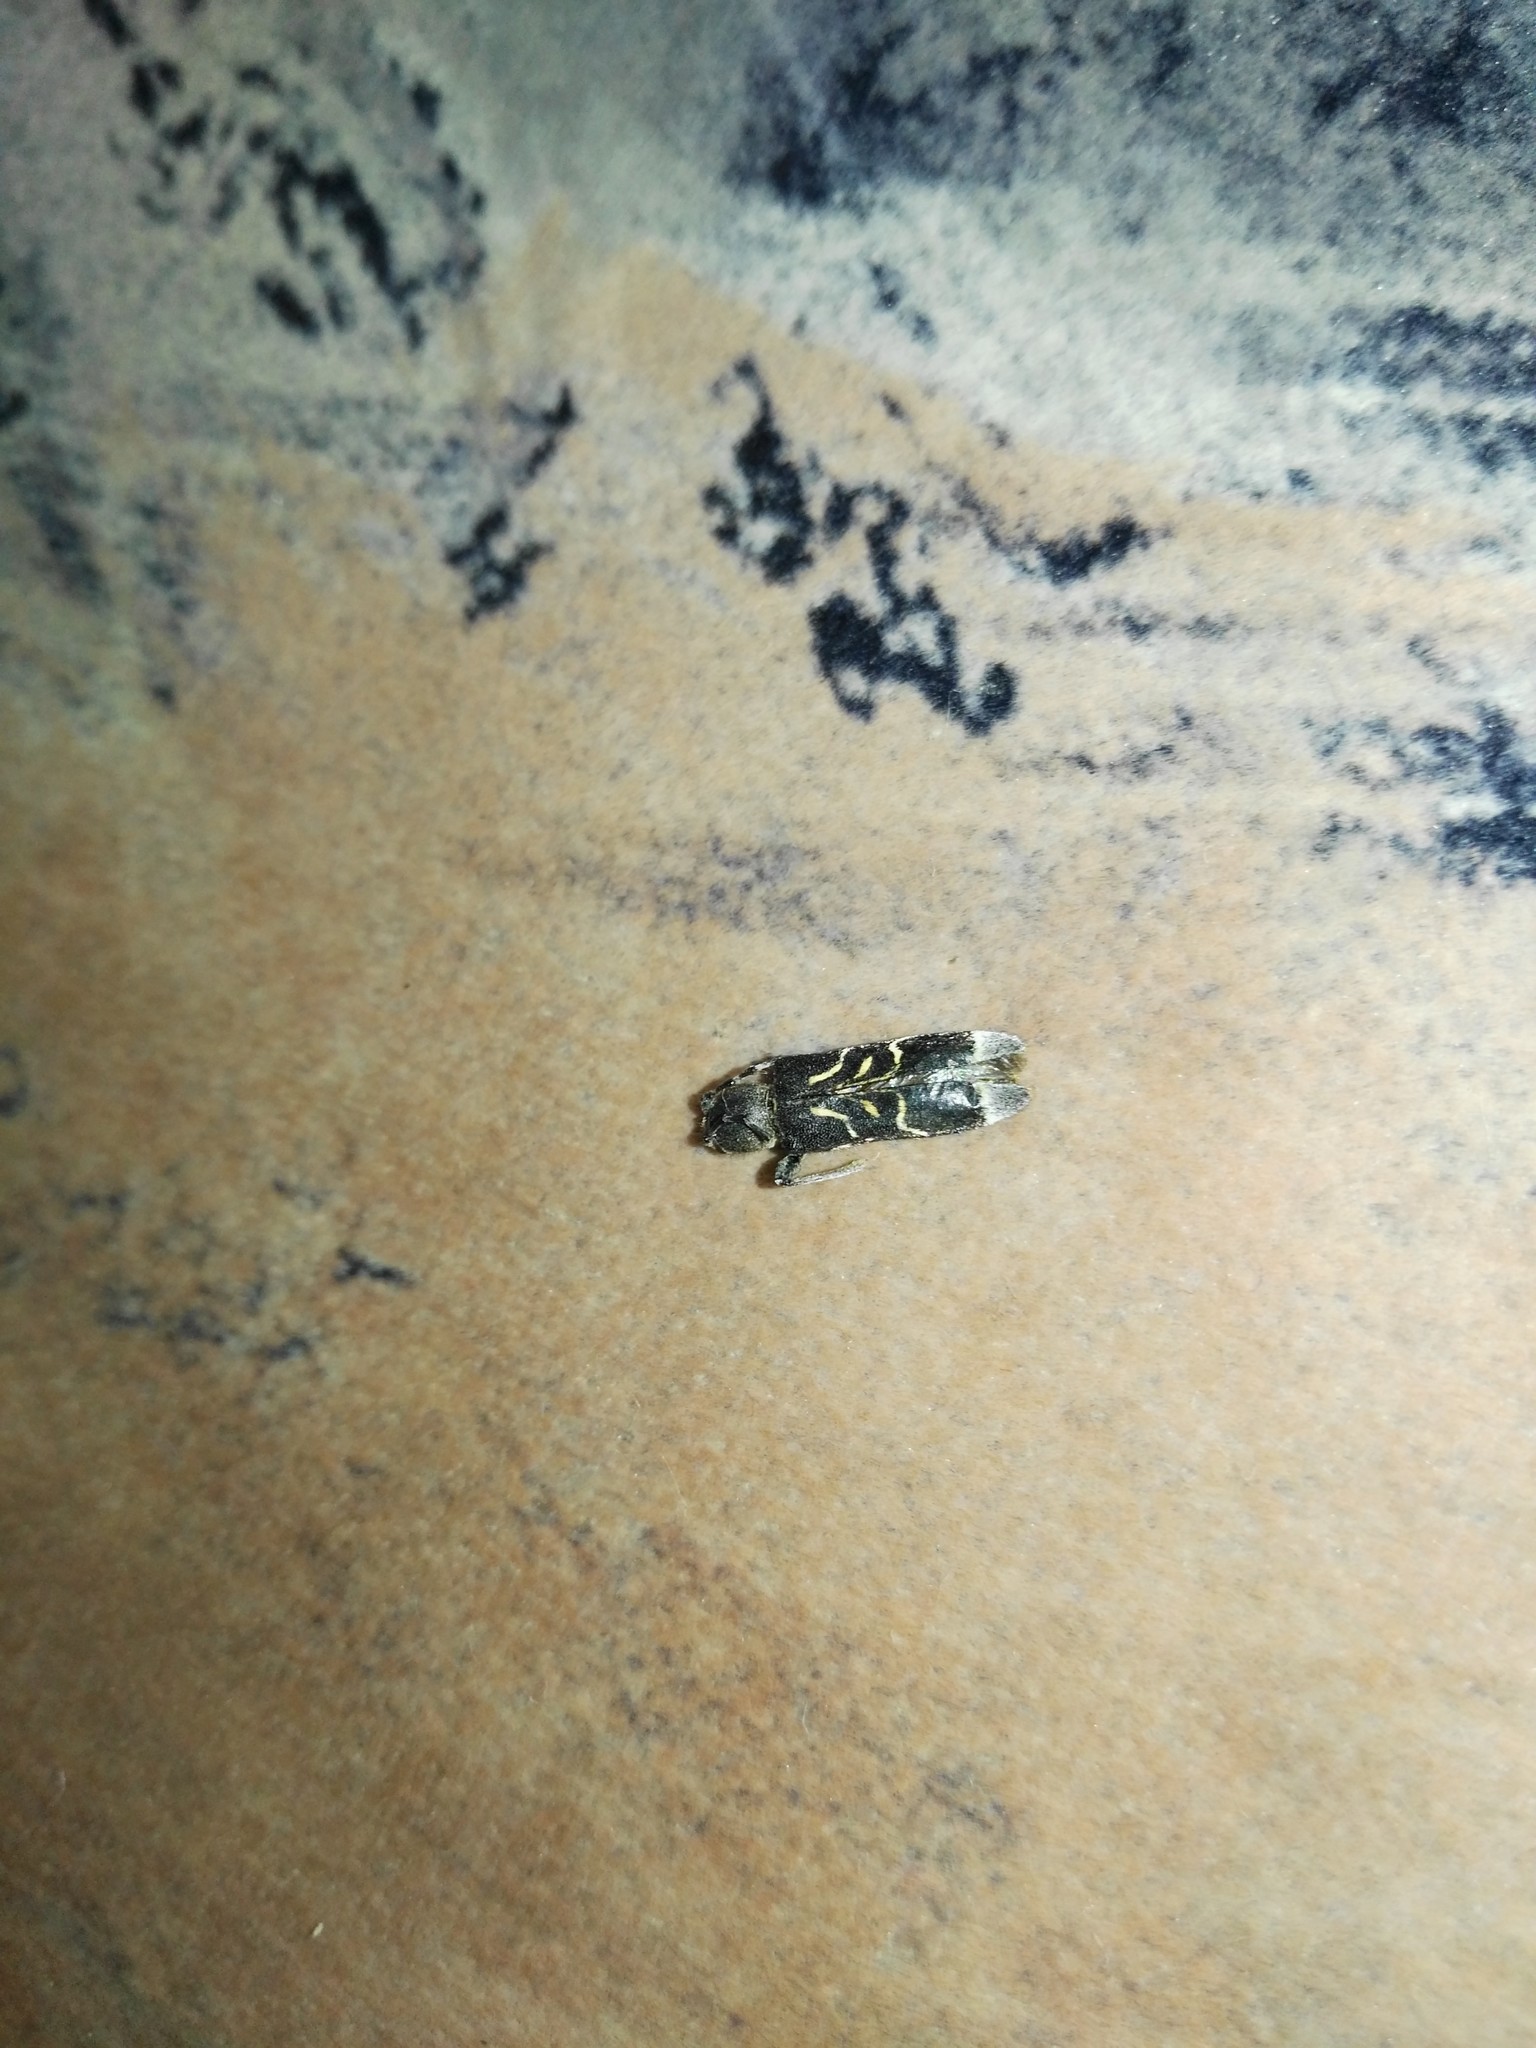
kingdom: Animalia
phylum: Arthropoda
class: Insecta
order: Coleoptera
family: Cerambycidae
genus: Anaglyptus
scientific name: Anaglyptus mysticus
